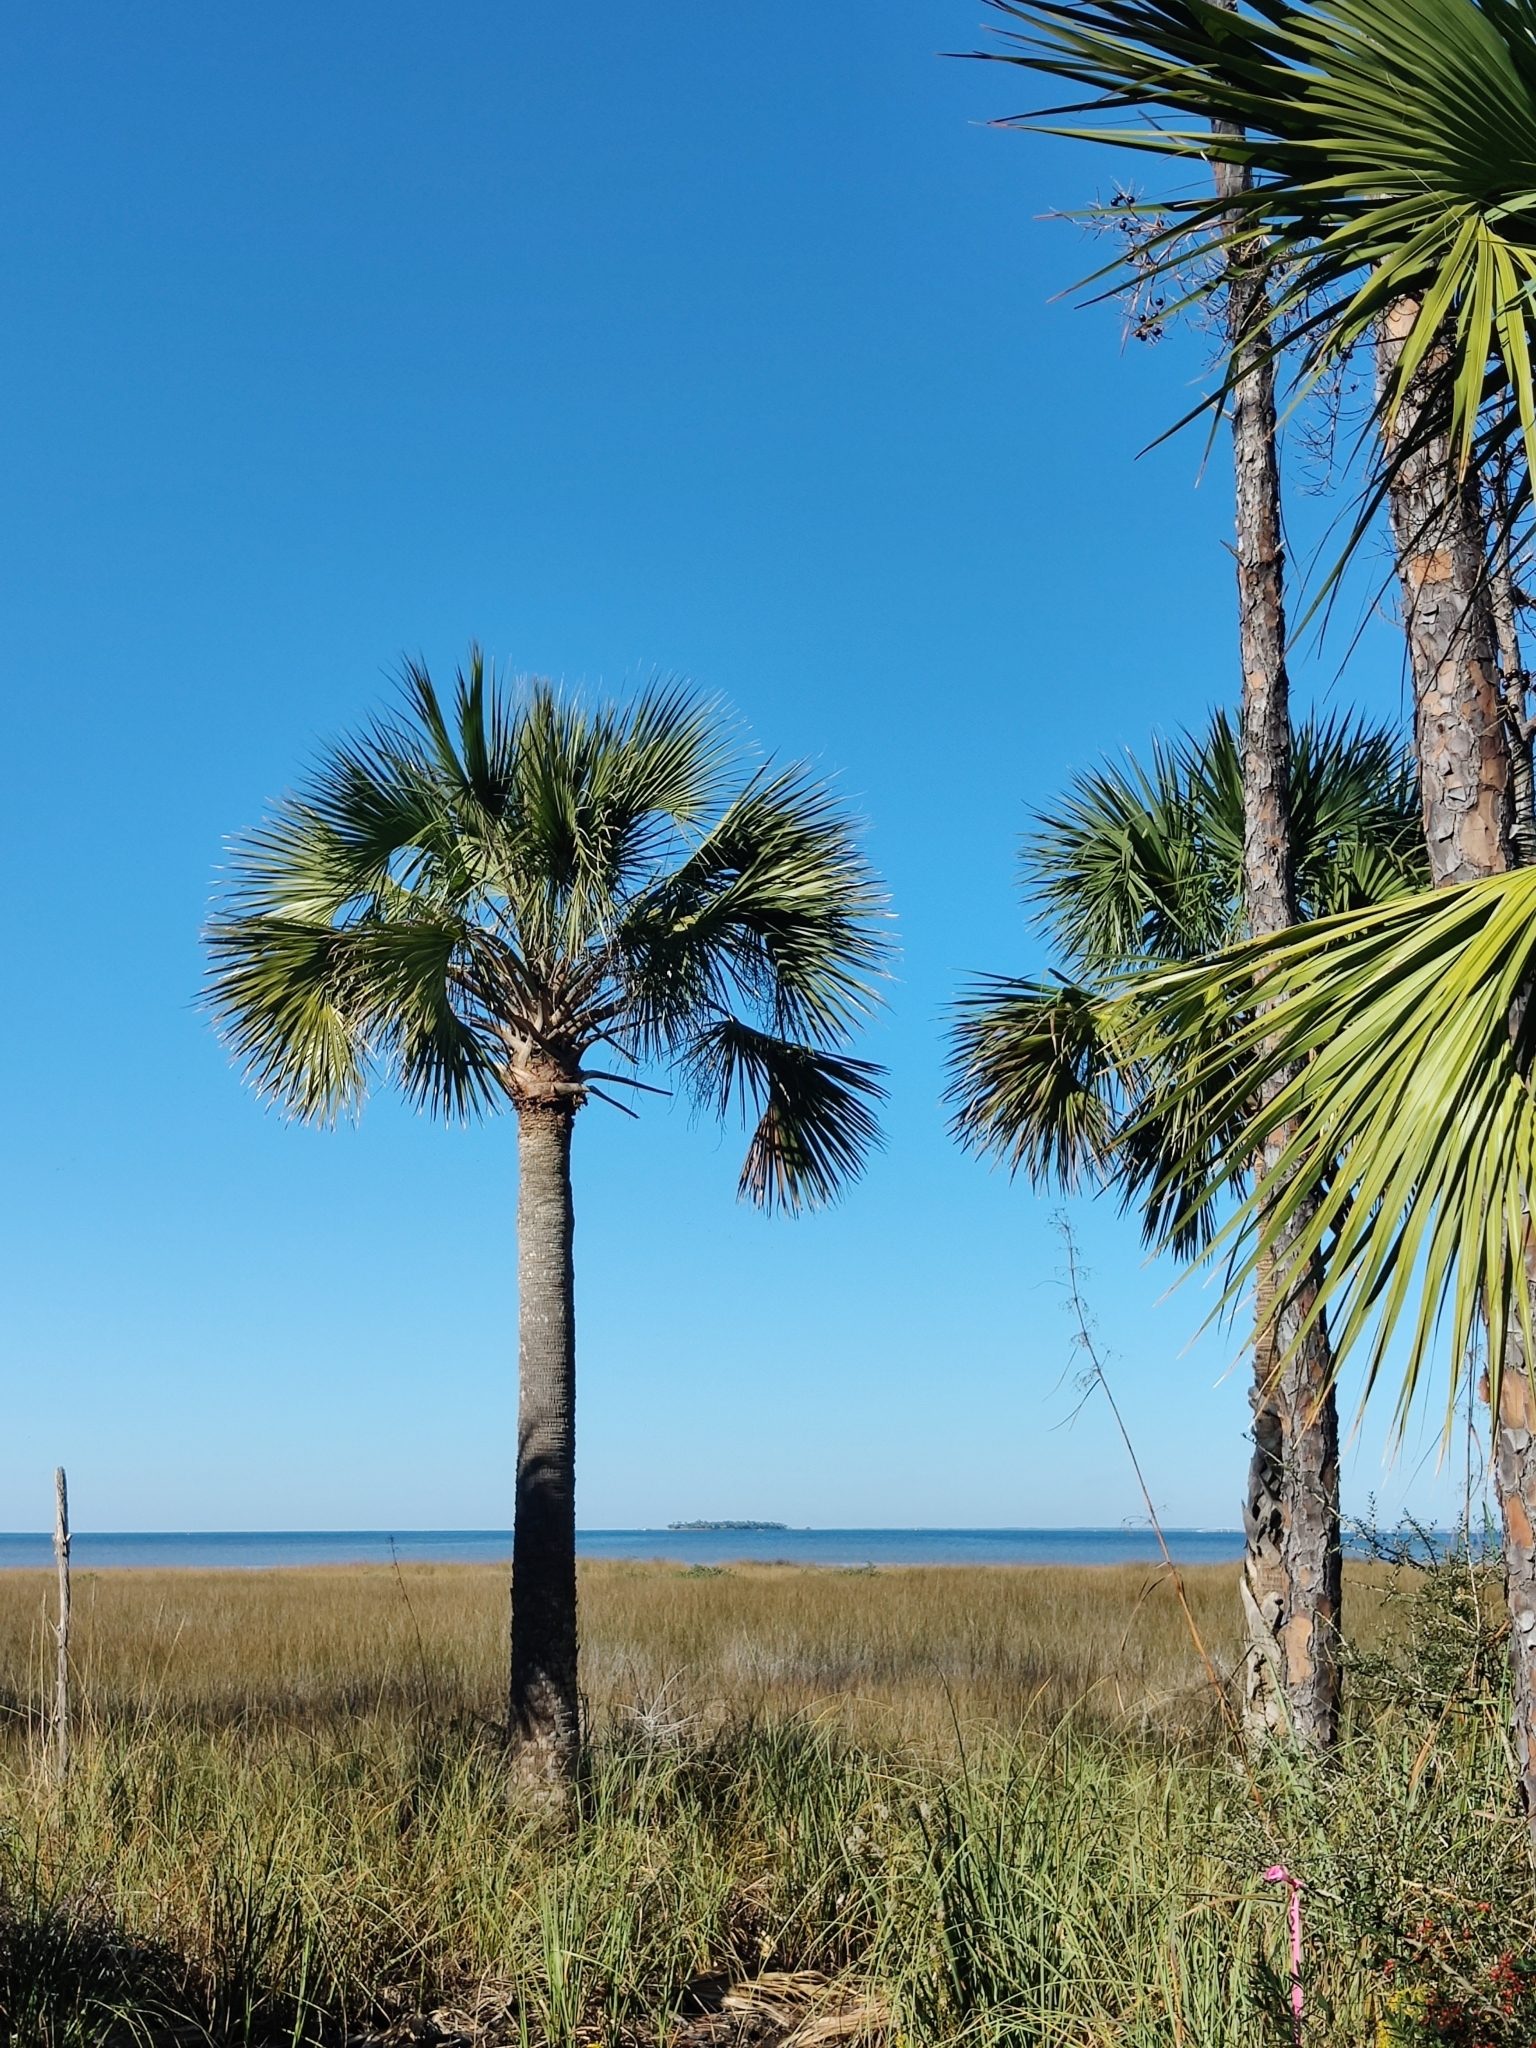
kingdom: Plantae
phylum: Tracheophyta
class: Liliopsida
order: Arecales
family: Arecaceae
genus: Sabal
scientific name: Sabal palmetto
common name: Blue palmetto
